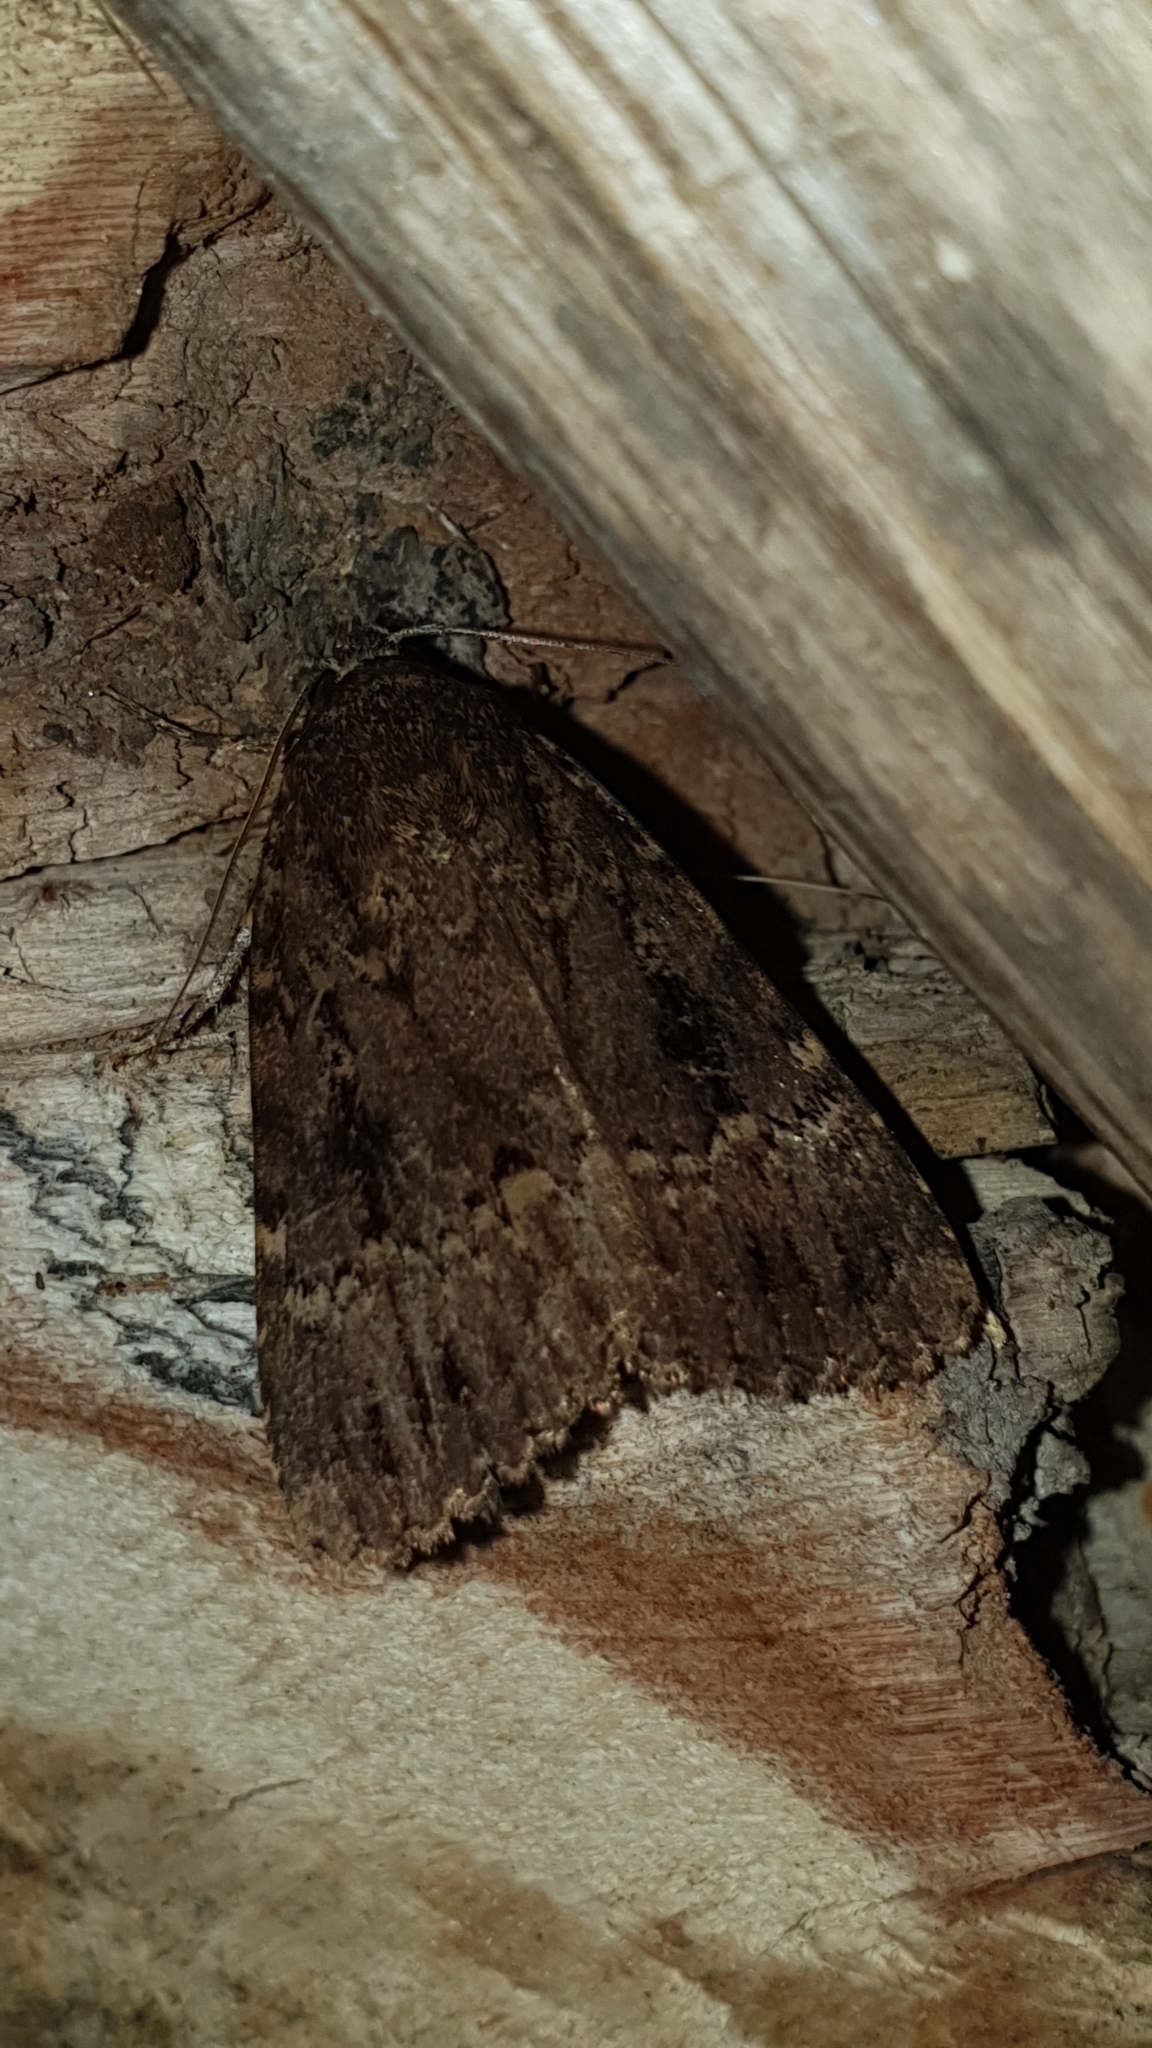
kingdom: Animalia
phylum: Arthropoda
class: Insecta
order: Lepidoptera
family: Noctuidae
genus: Amphipyra
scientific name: Amphipyra pyramidea
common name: Copper underwing
